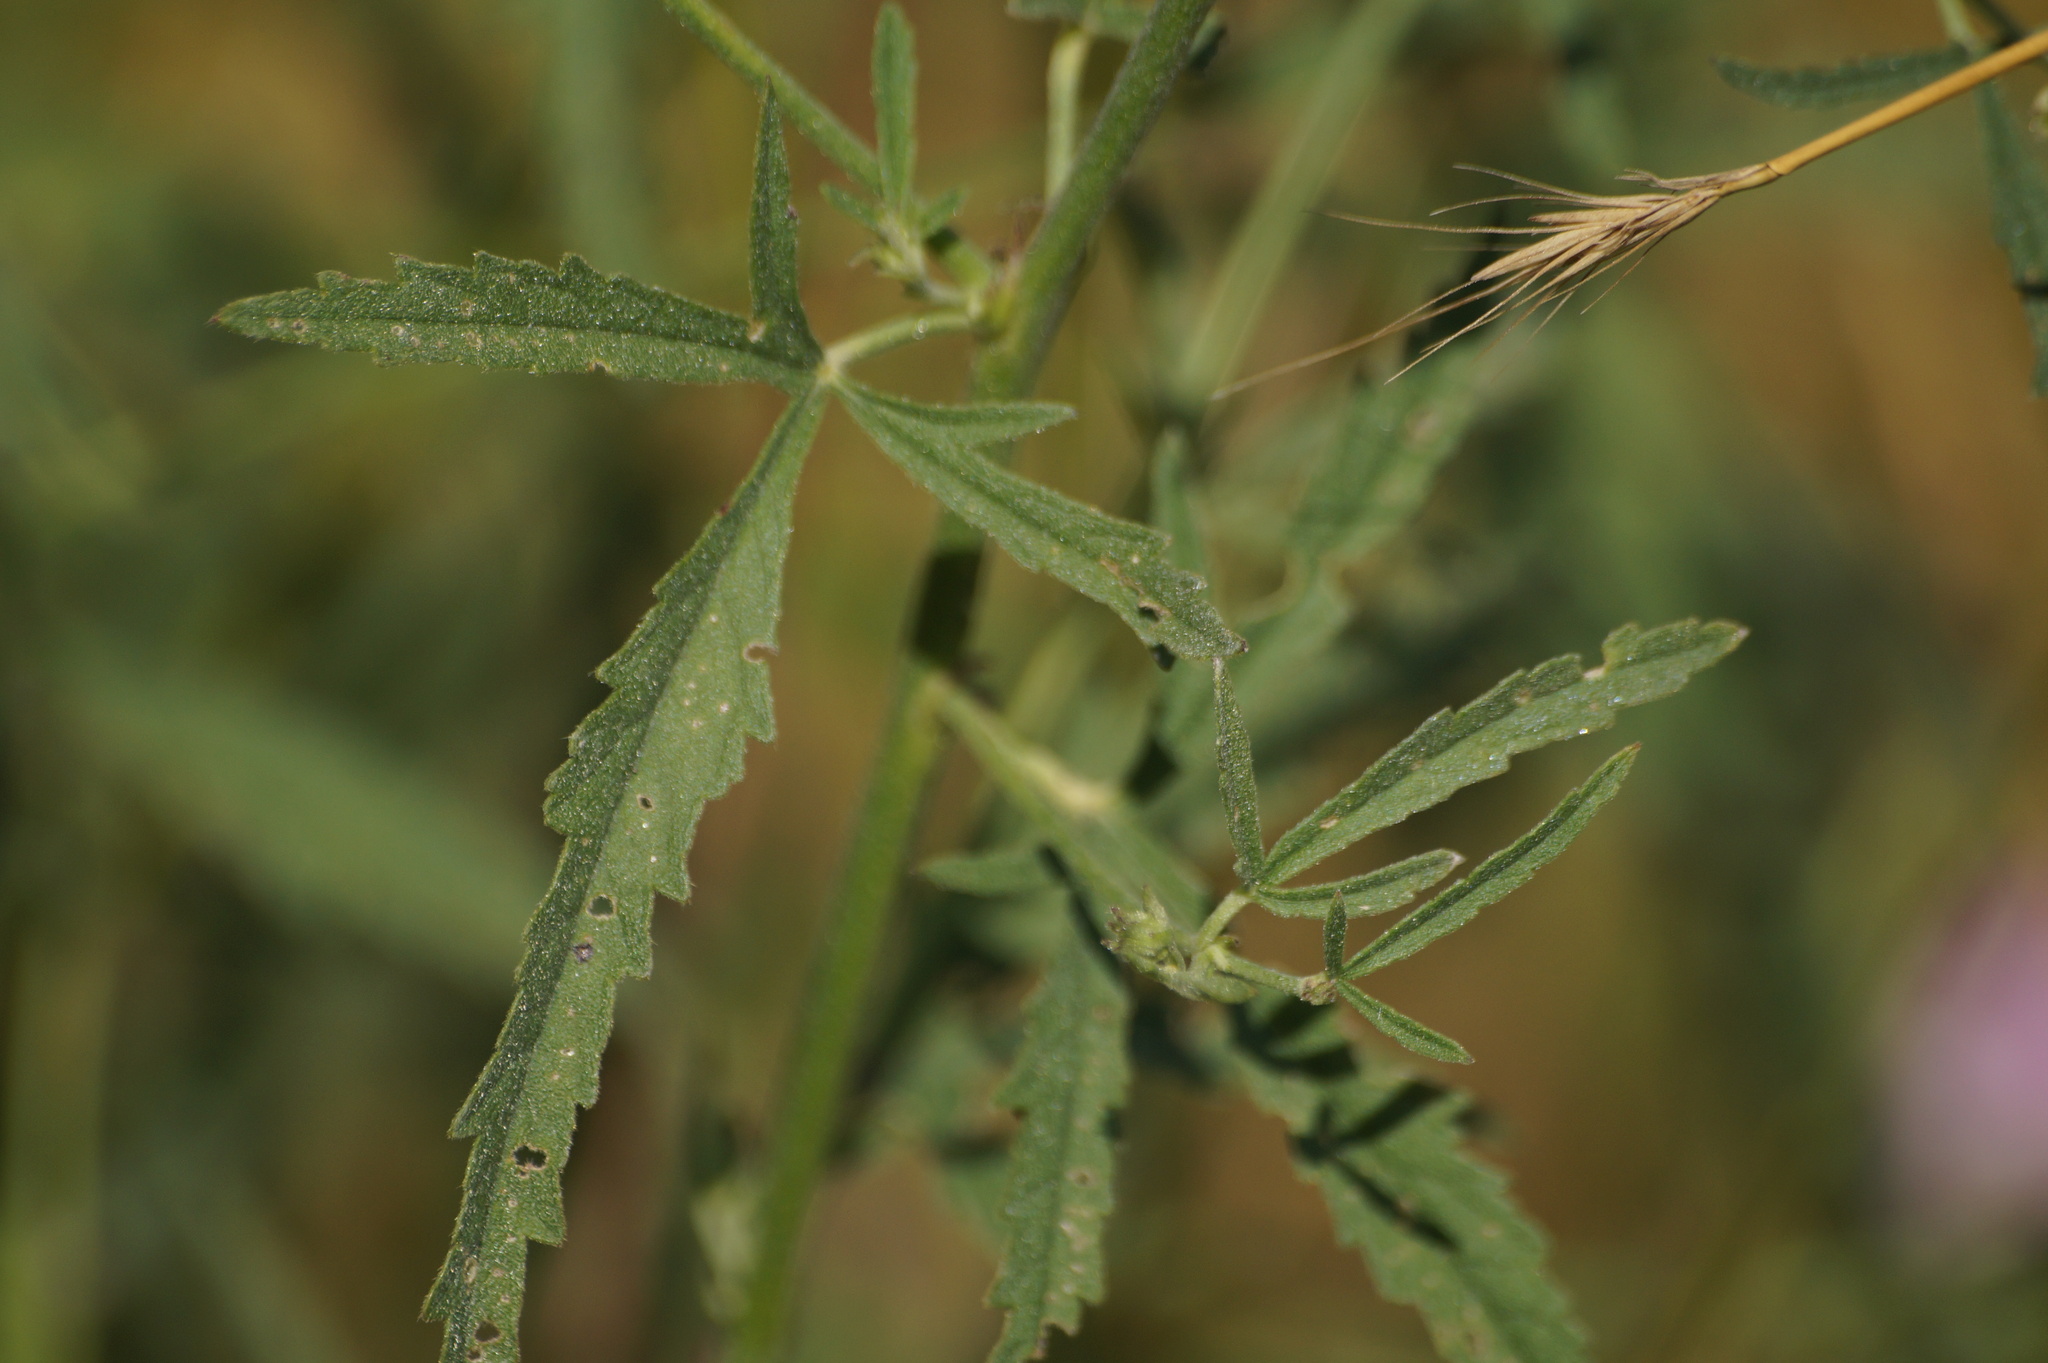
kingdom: Plantae
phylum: Tracheophyta
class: Magnoliopsida
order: Malvales
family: Malvaceae
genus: Althaea
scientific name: Althaea cannabina
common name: Palm-leaf marshmallow
